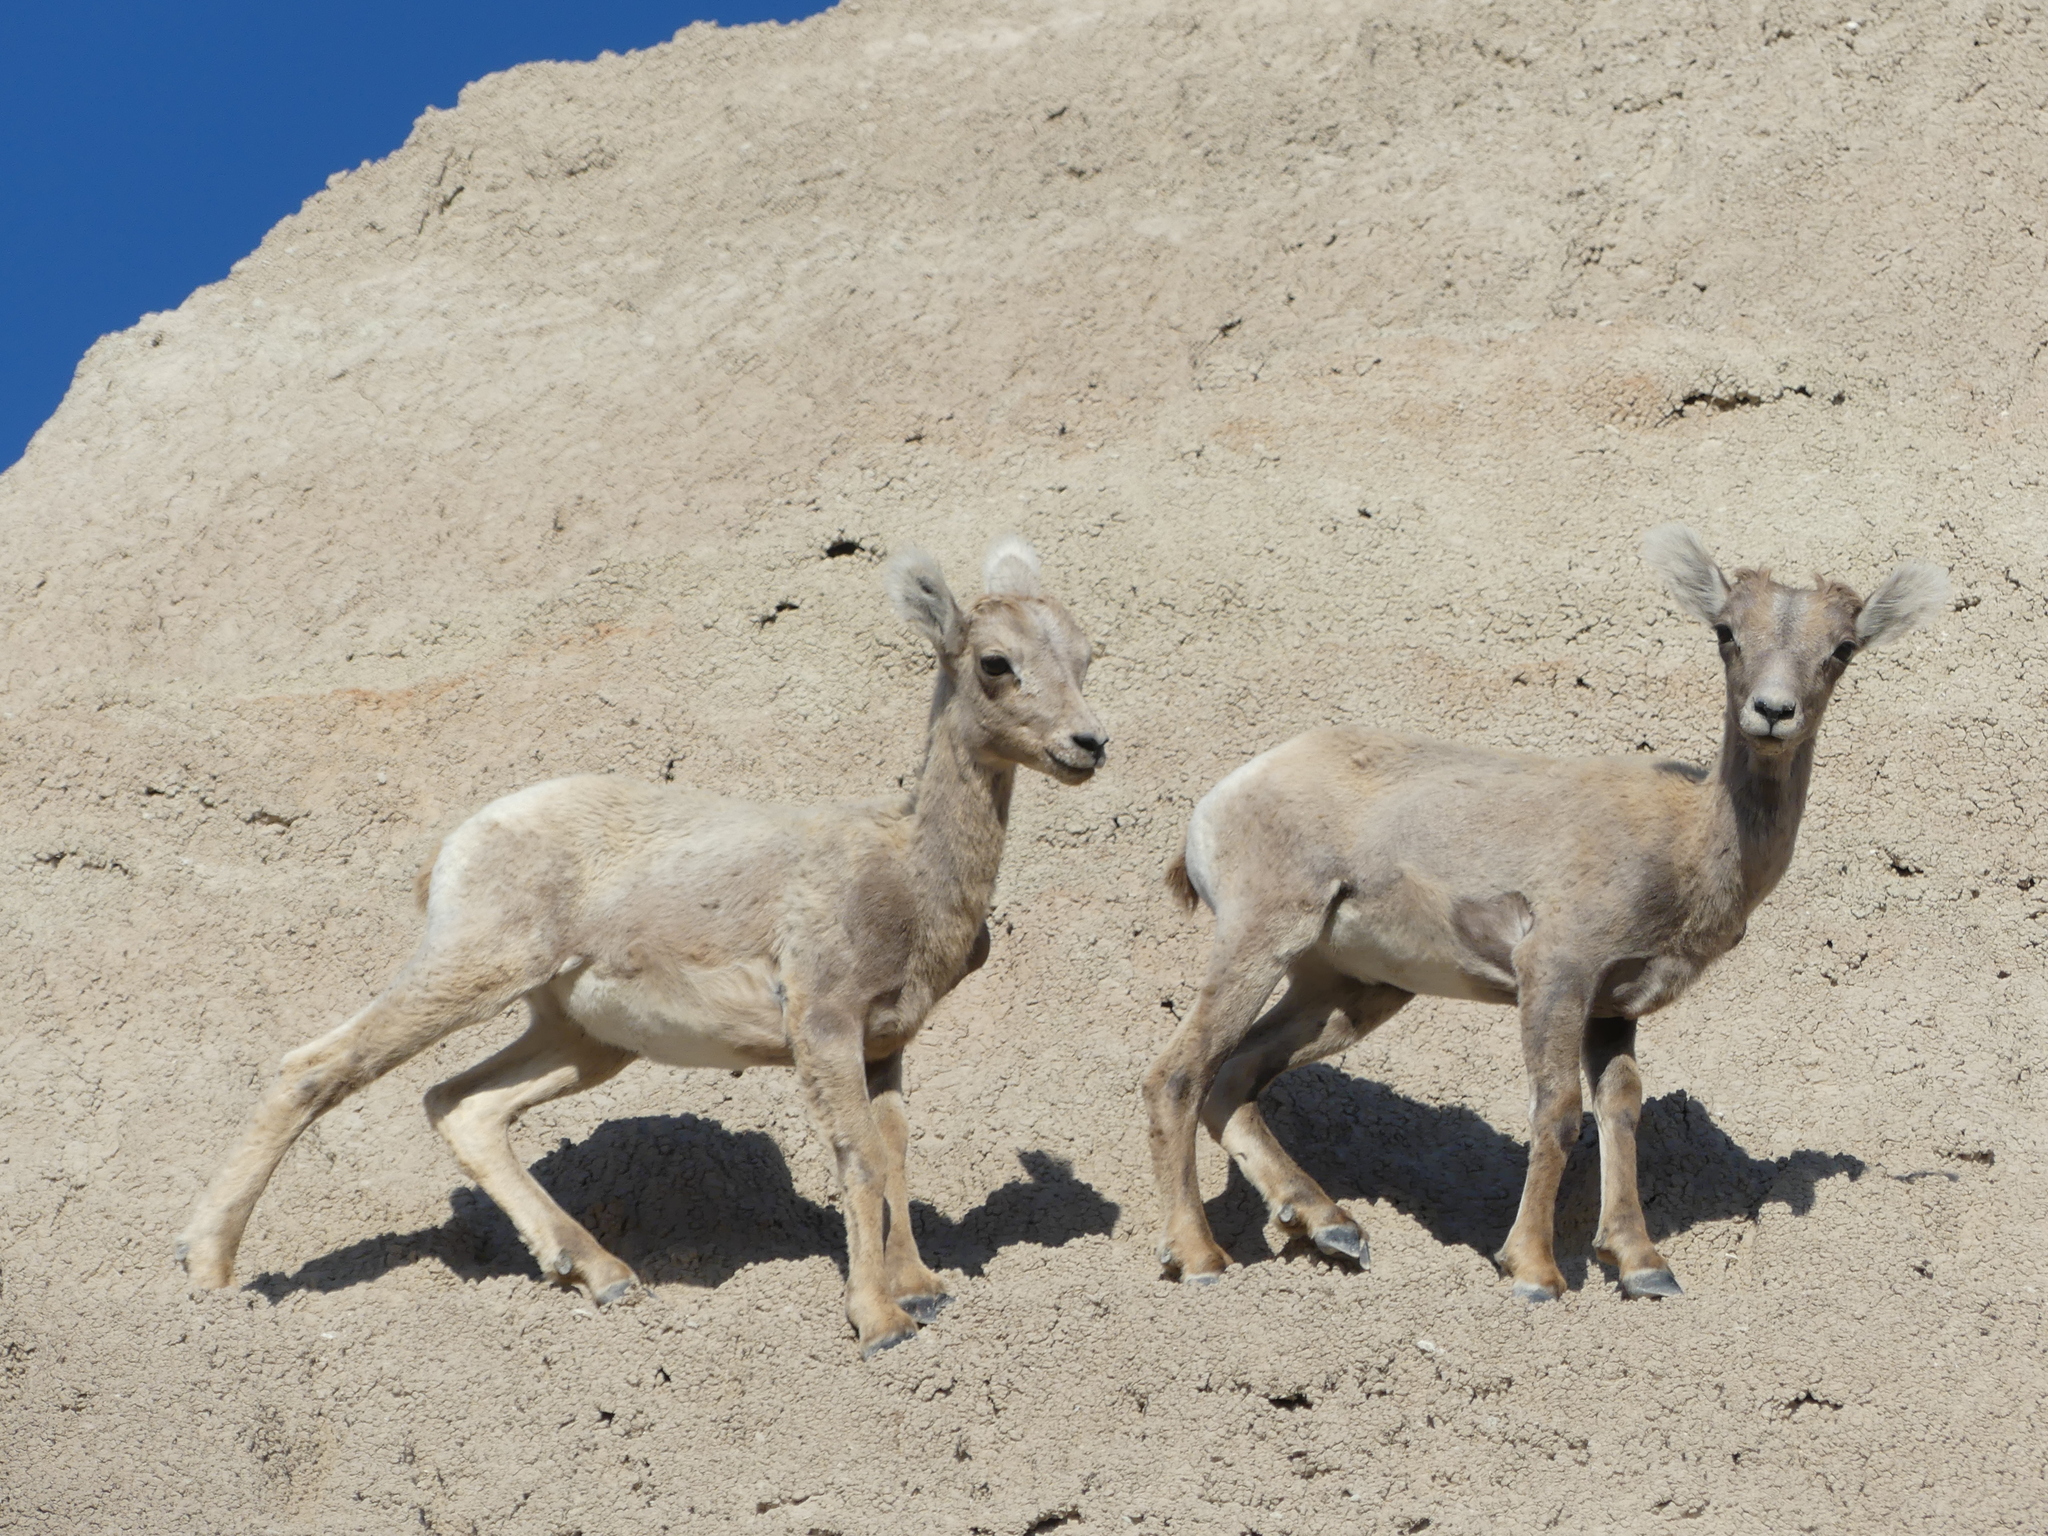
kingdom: Animalia
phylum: Chordata
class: Mammalia
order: Artiodactyla
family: Bovidae
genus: Ovis
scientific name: Ovis canadensis
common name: Bighorn sheep
